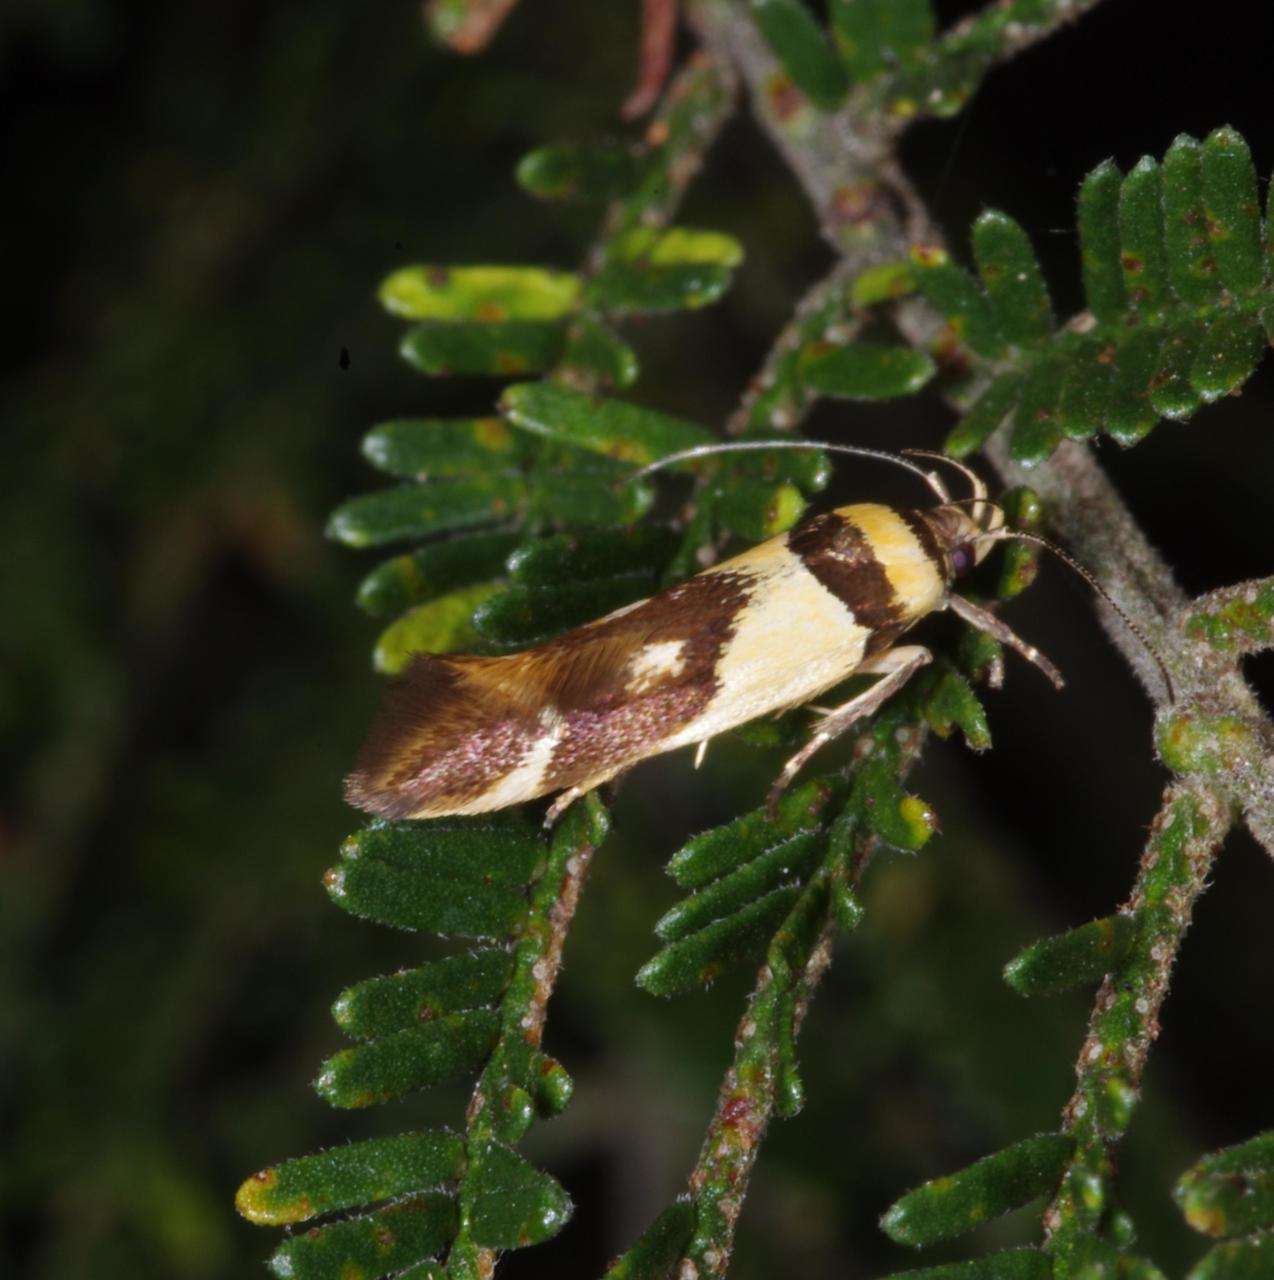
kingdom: Animalia
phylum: Arthropoda
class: Insecta
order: Lepidoptera
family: Cosmopterigidae
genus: Macrobathra
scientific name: Macrobathra chrysotoxa
